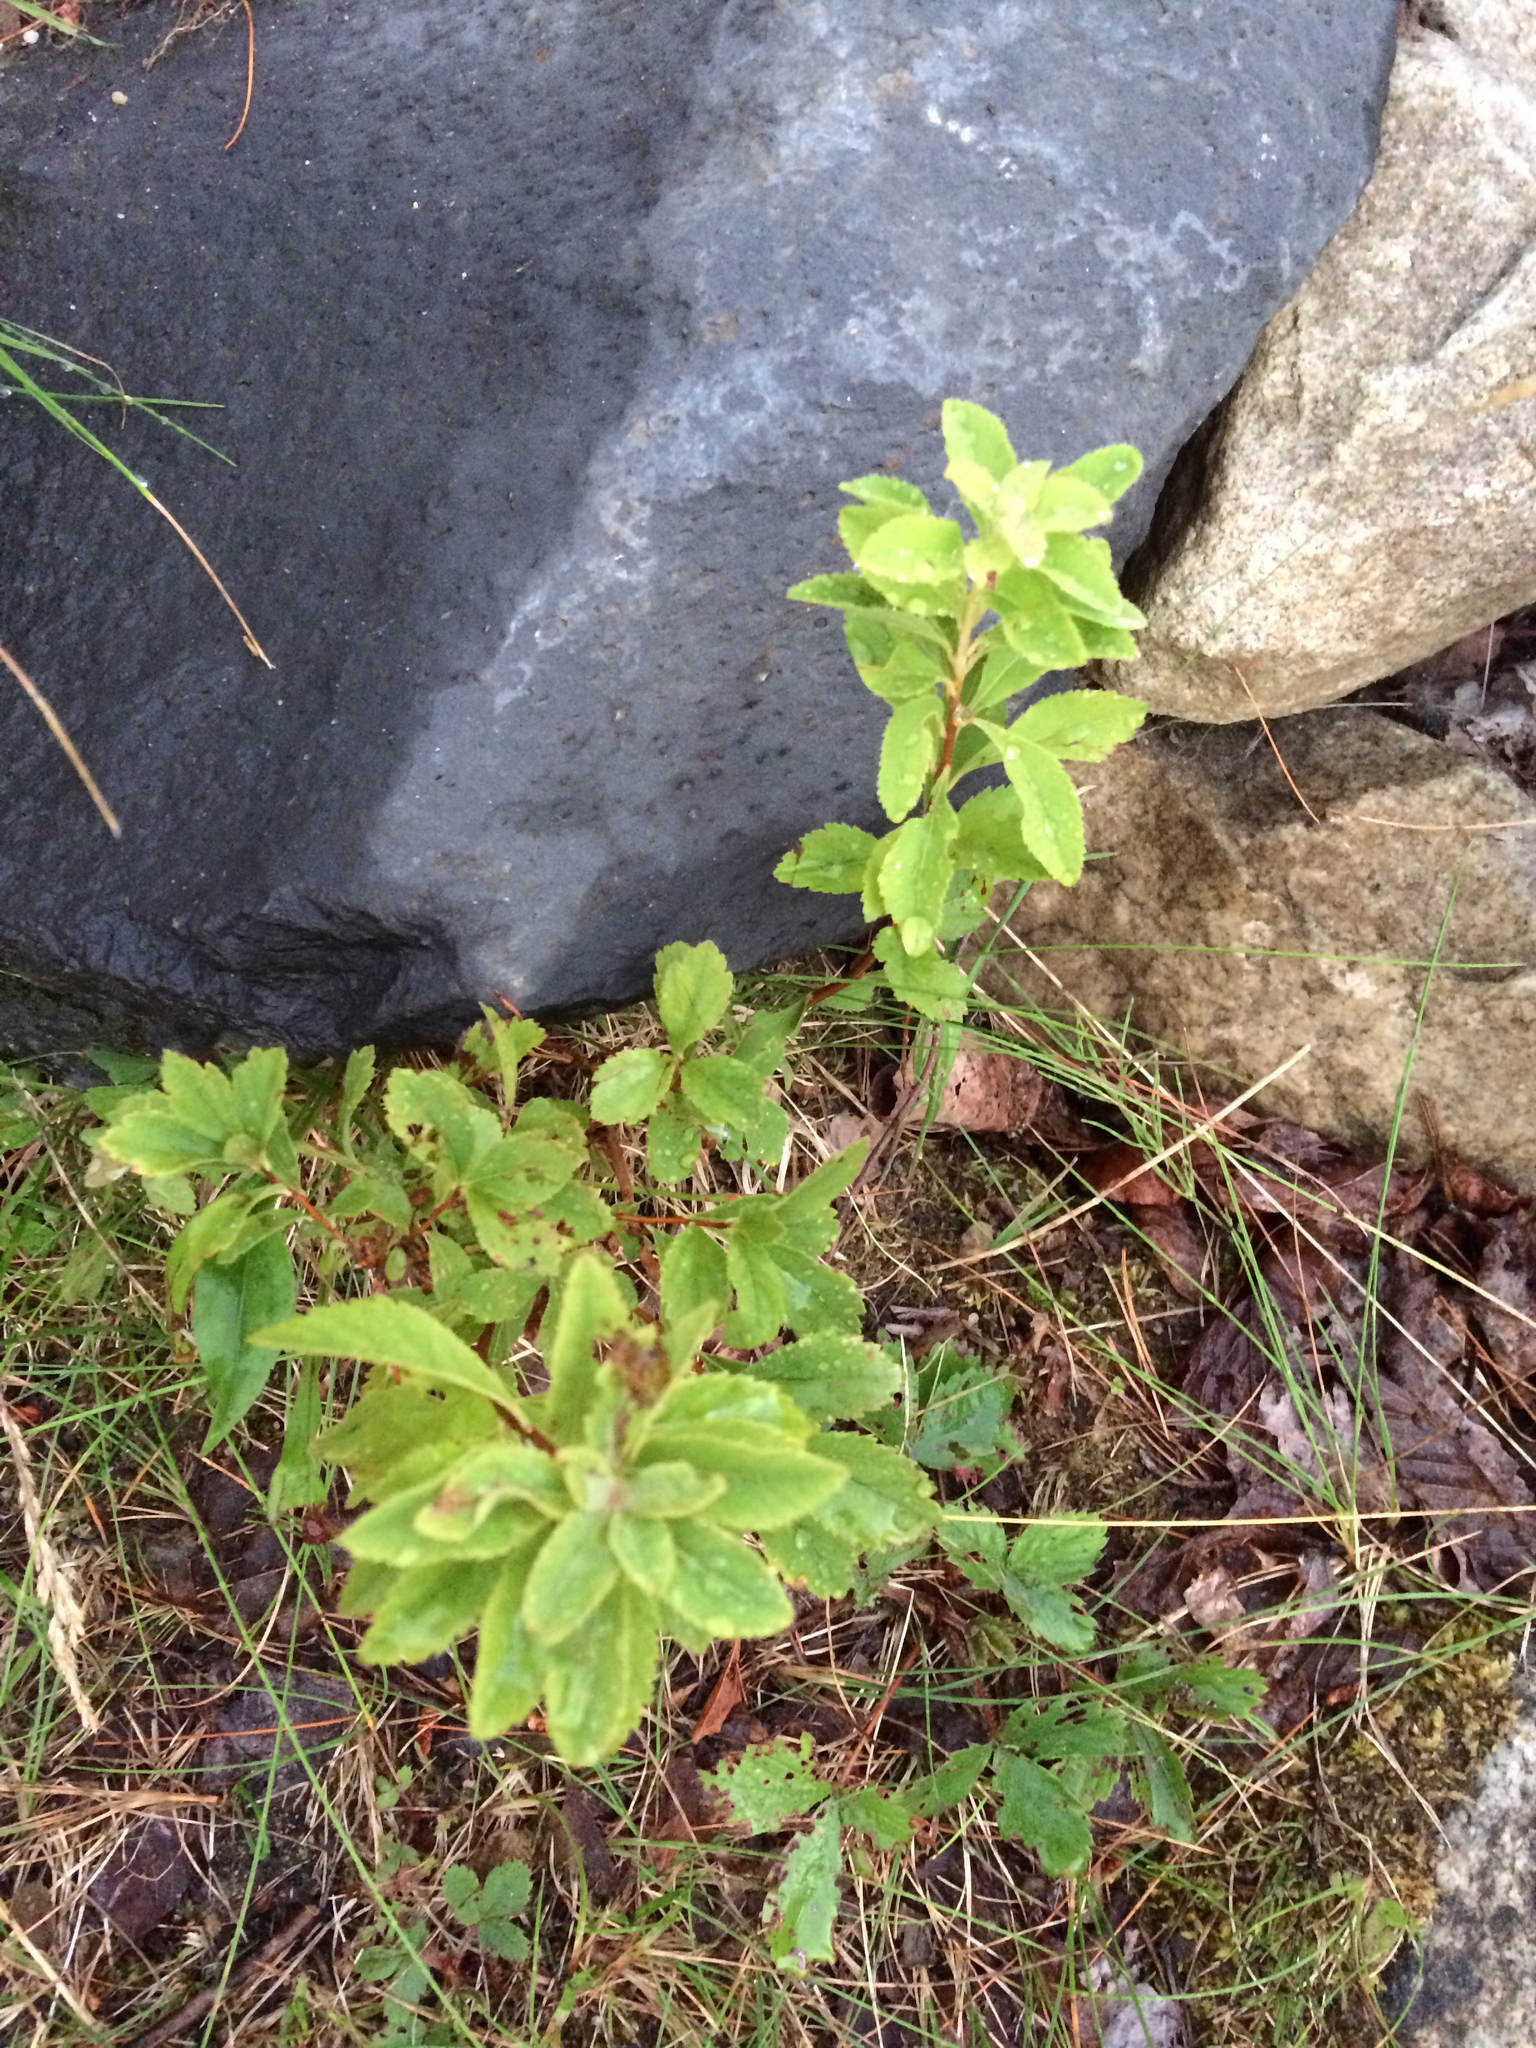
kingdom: Plantae
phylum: Tracheophyta
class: Magnoliopsida
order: Rosales
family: Rosaceae
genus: Spiraea
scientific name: Spiraea alba
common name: Pale bridewort
